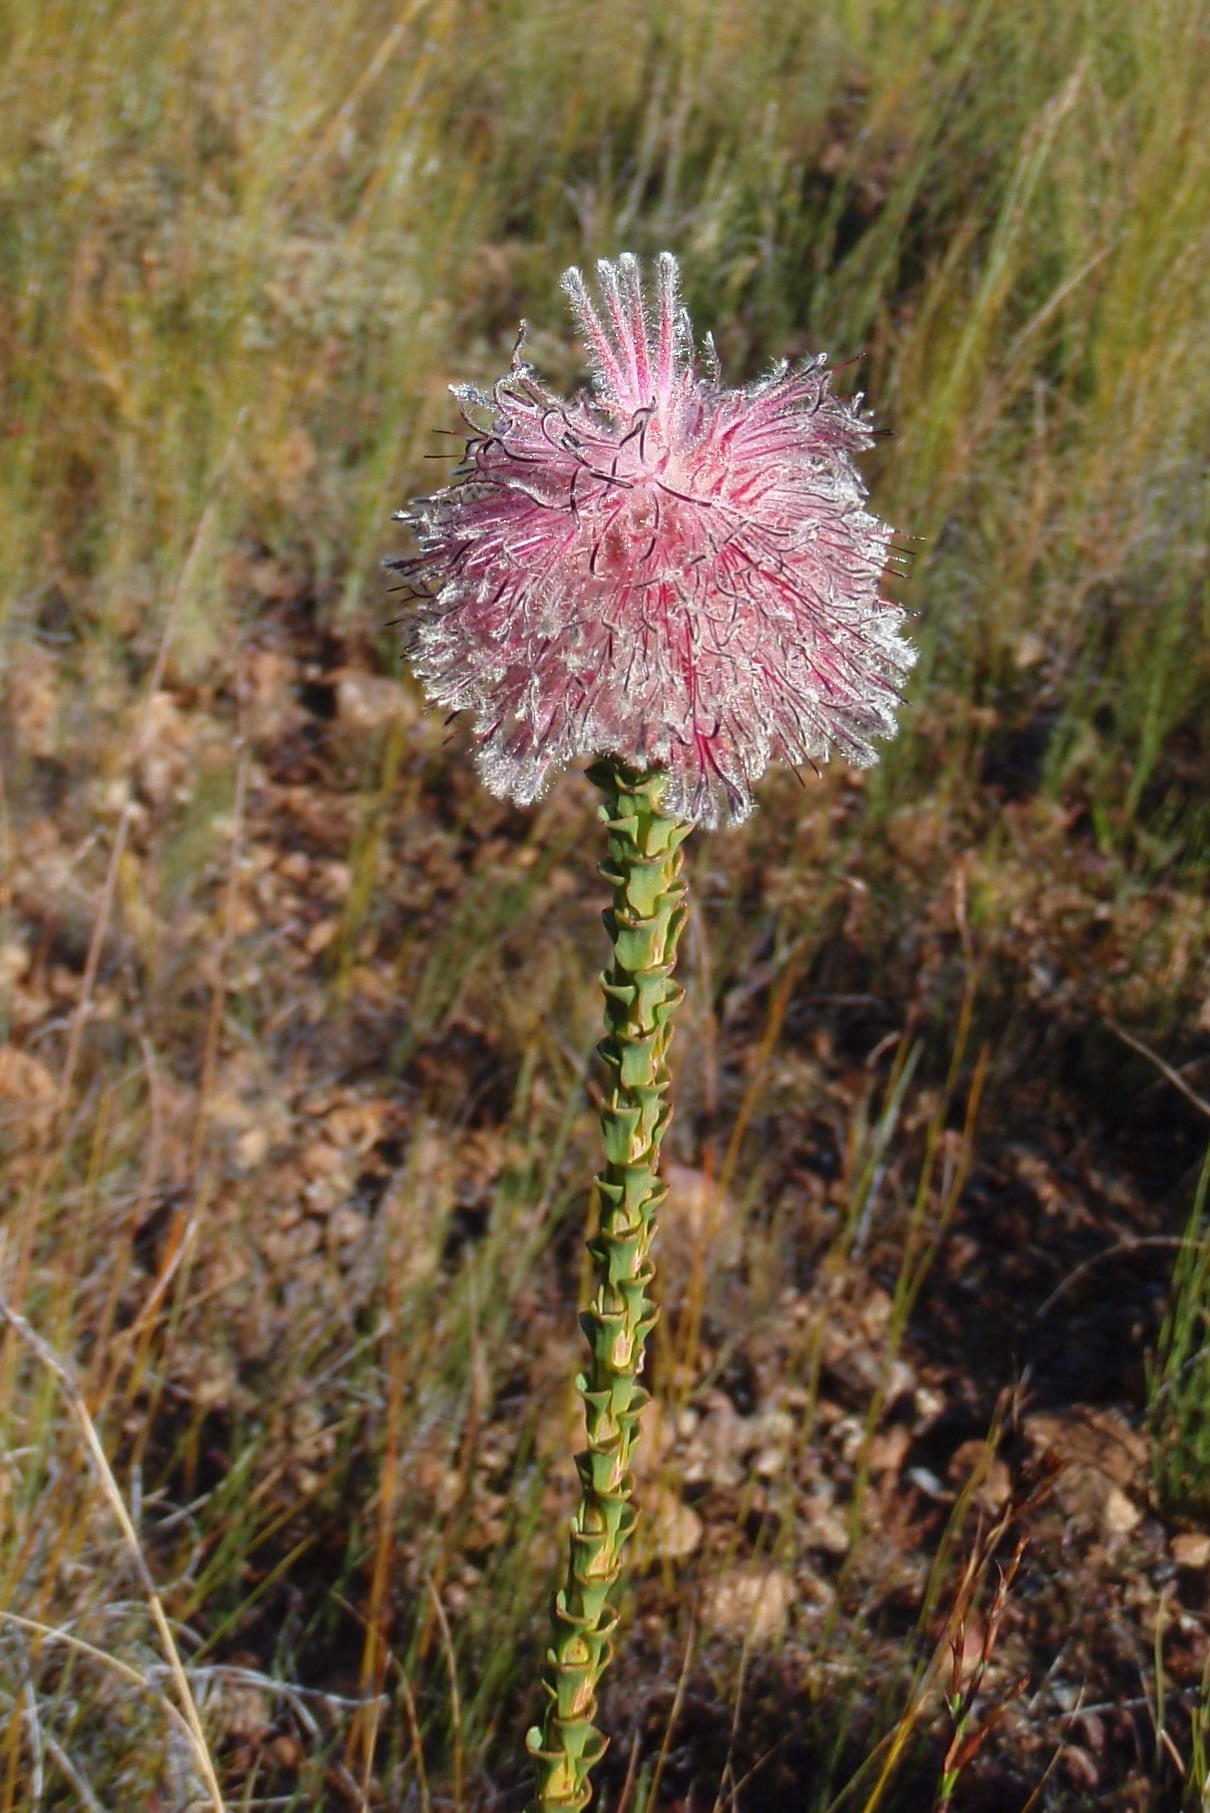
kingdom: Plantae
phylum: Tracheophyta
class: Magnoliopsida
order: Proteales
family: Proteaceae
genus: Paranomus
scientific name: Paranomus longicaulis
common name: Exploding baked apple
